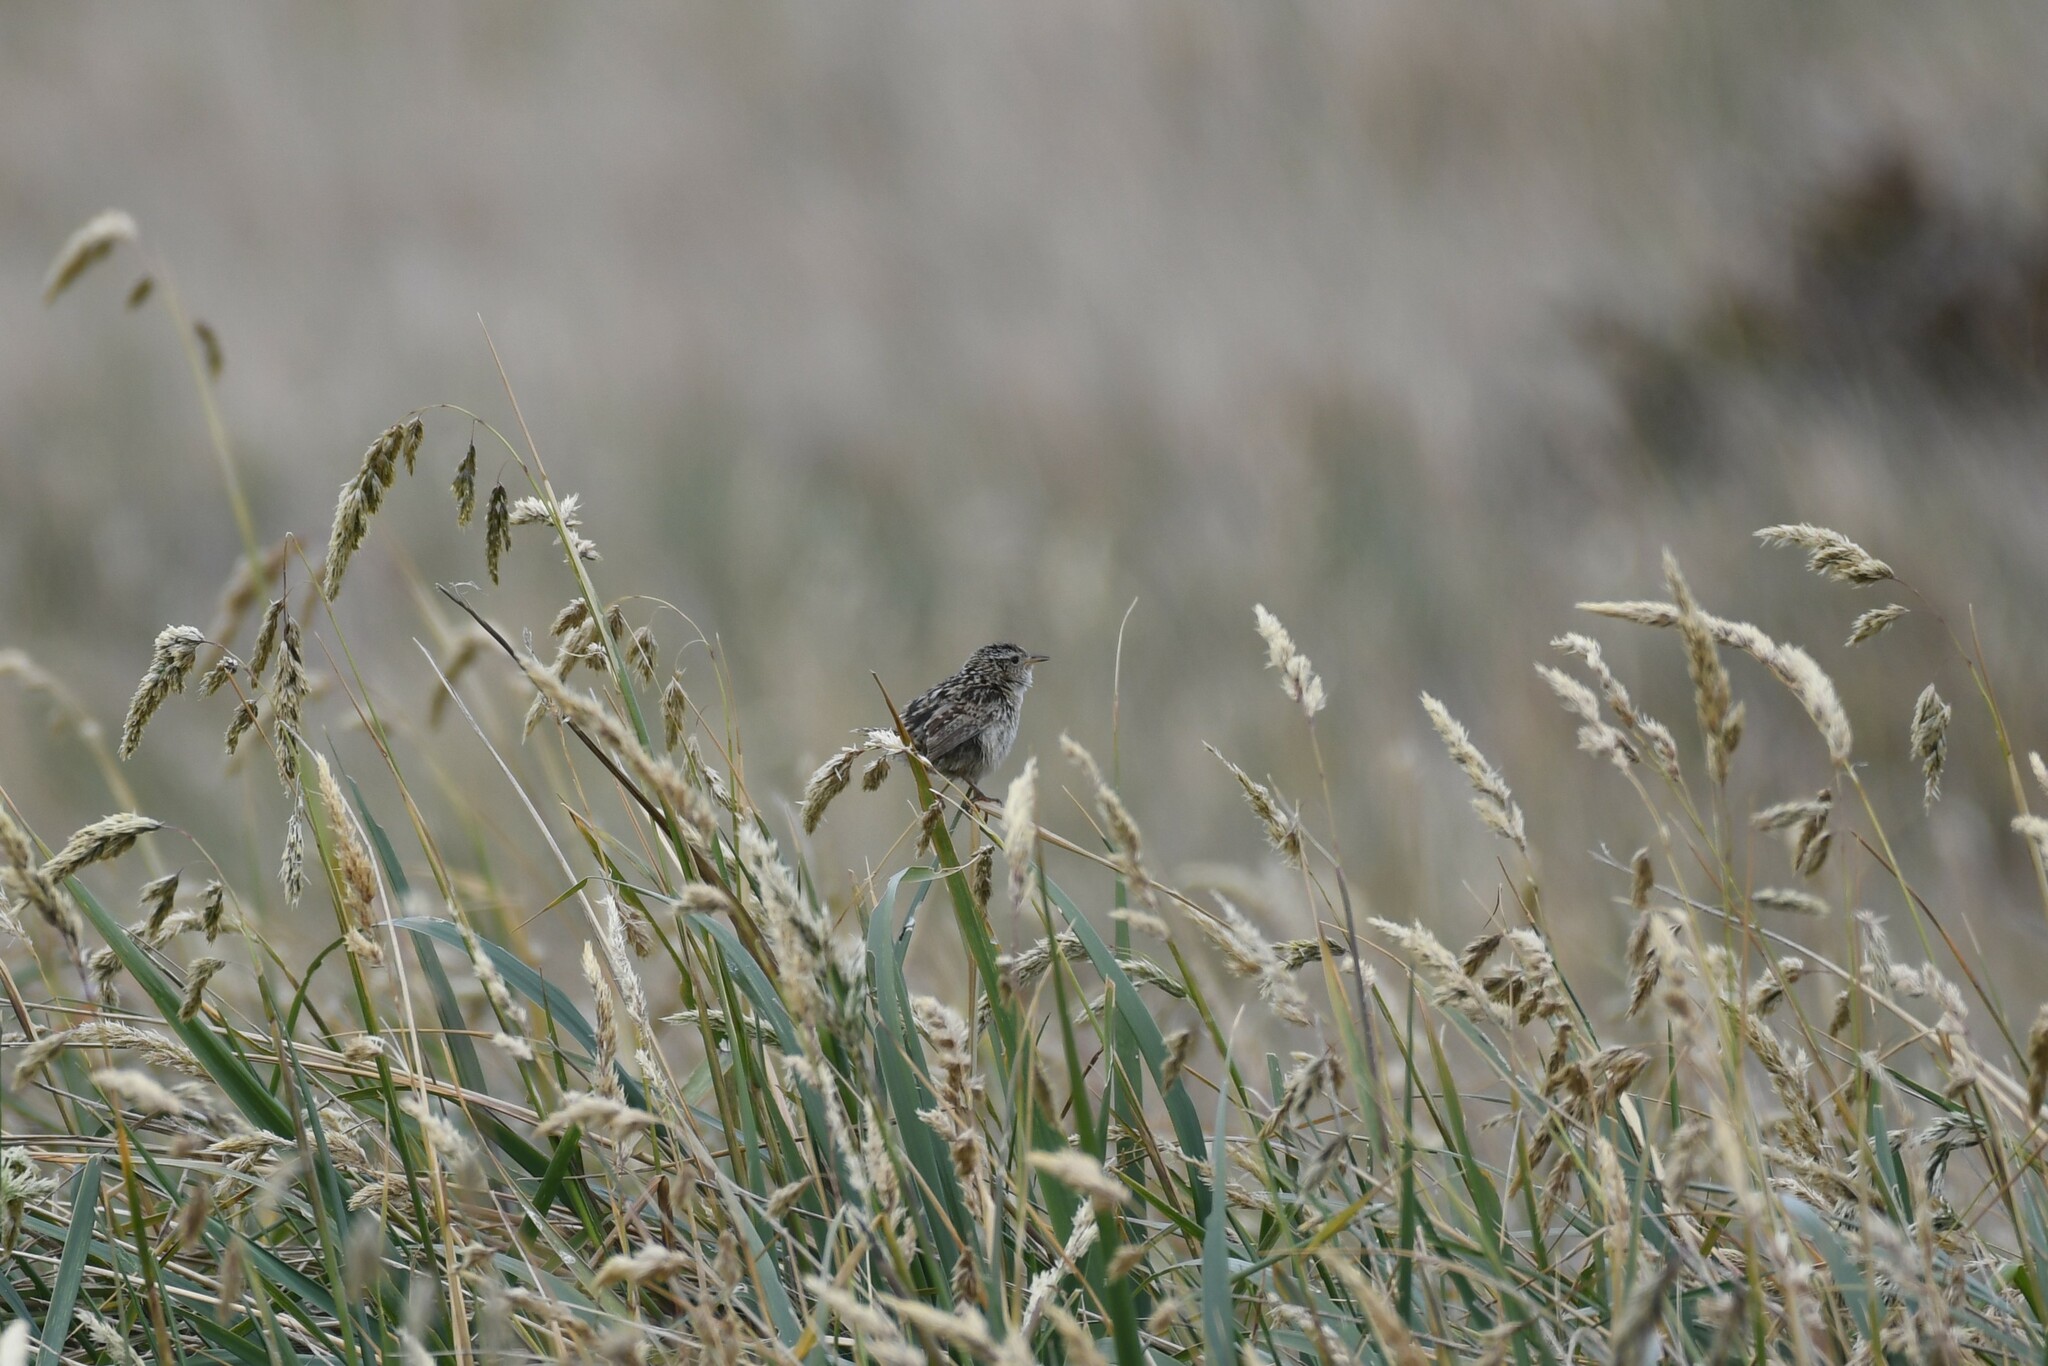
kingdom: Animalia
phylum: Chordata
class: Aves
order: Passeriformes
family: Troglodytidae
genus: Cistothorus
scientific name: Cistothorus platensis
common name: Sedge wren
